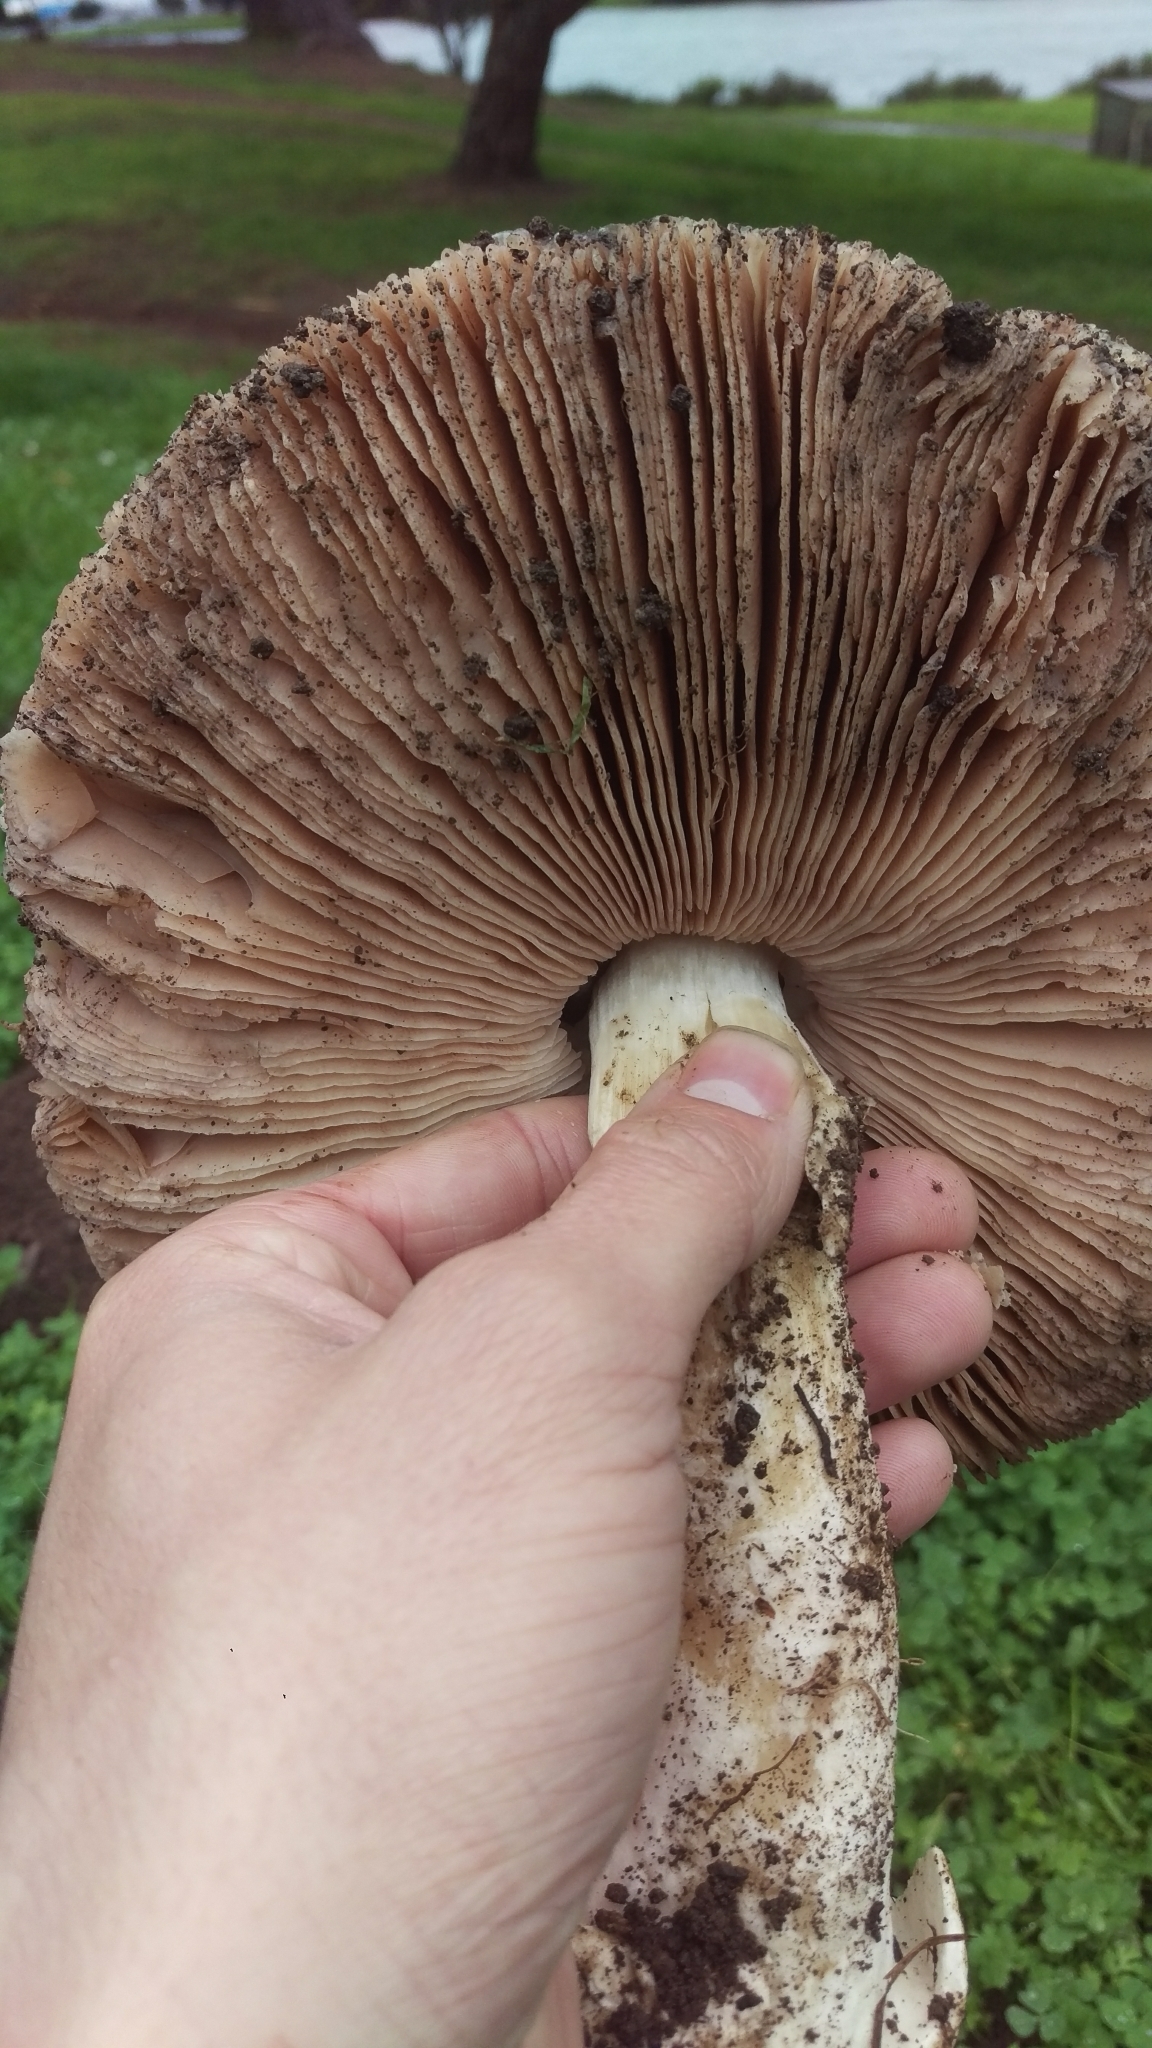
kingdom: Fungi
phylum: Basidiomycota
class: Agaricomycetes
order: Agaricales
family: Pluteaceae
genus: Volvopluteus
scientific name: Volvopluteus gloiocephalus
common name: Stubble rosegill
